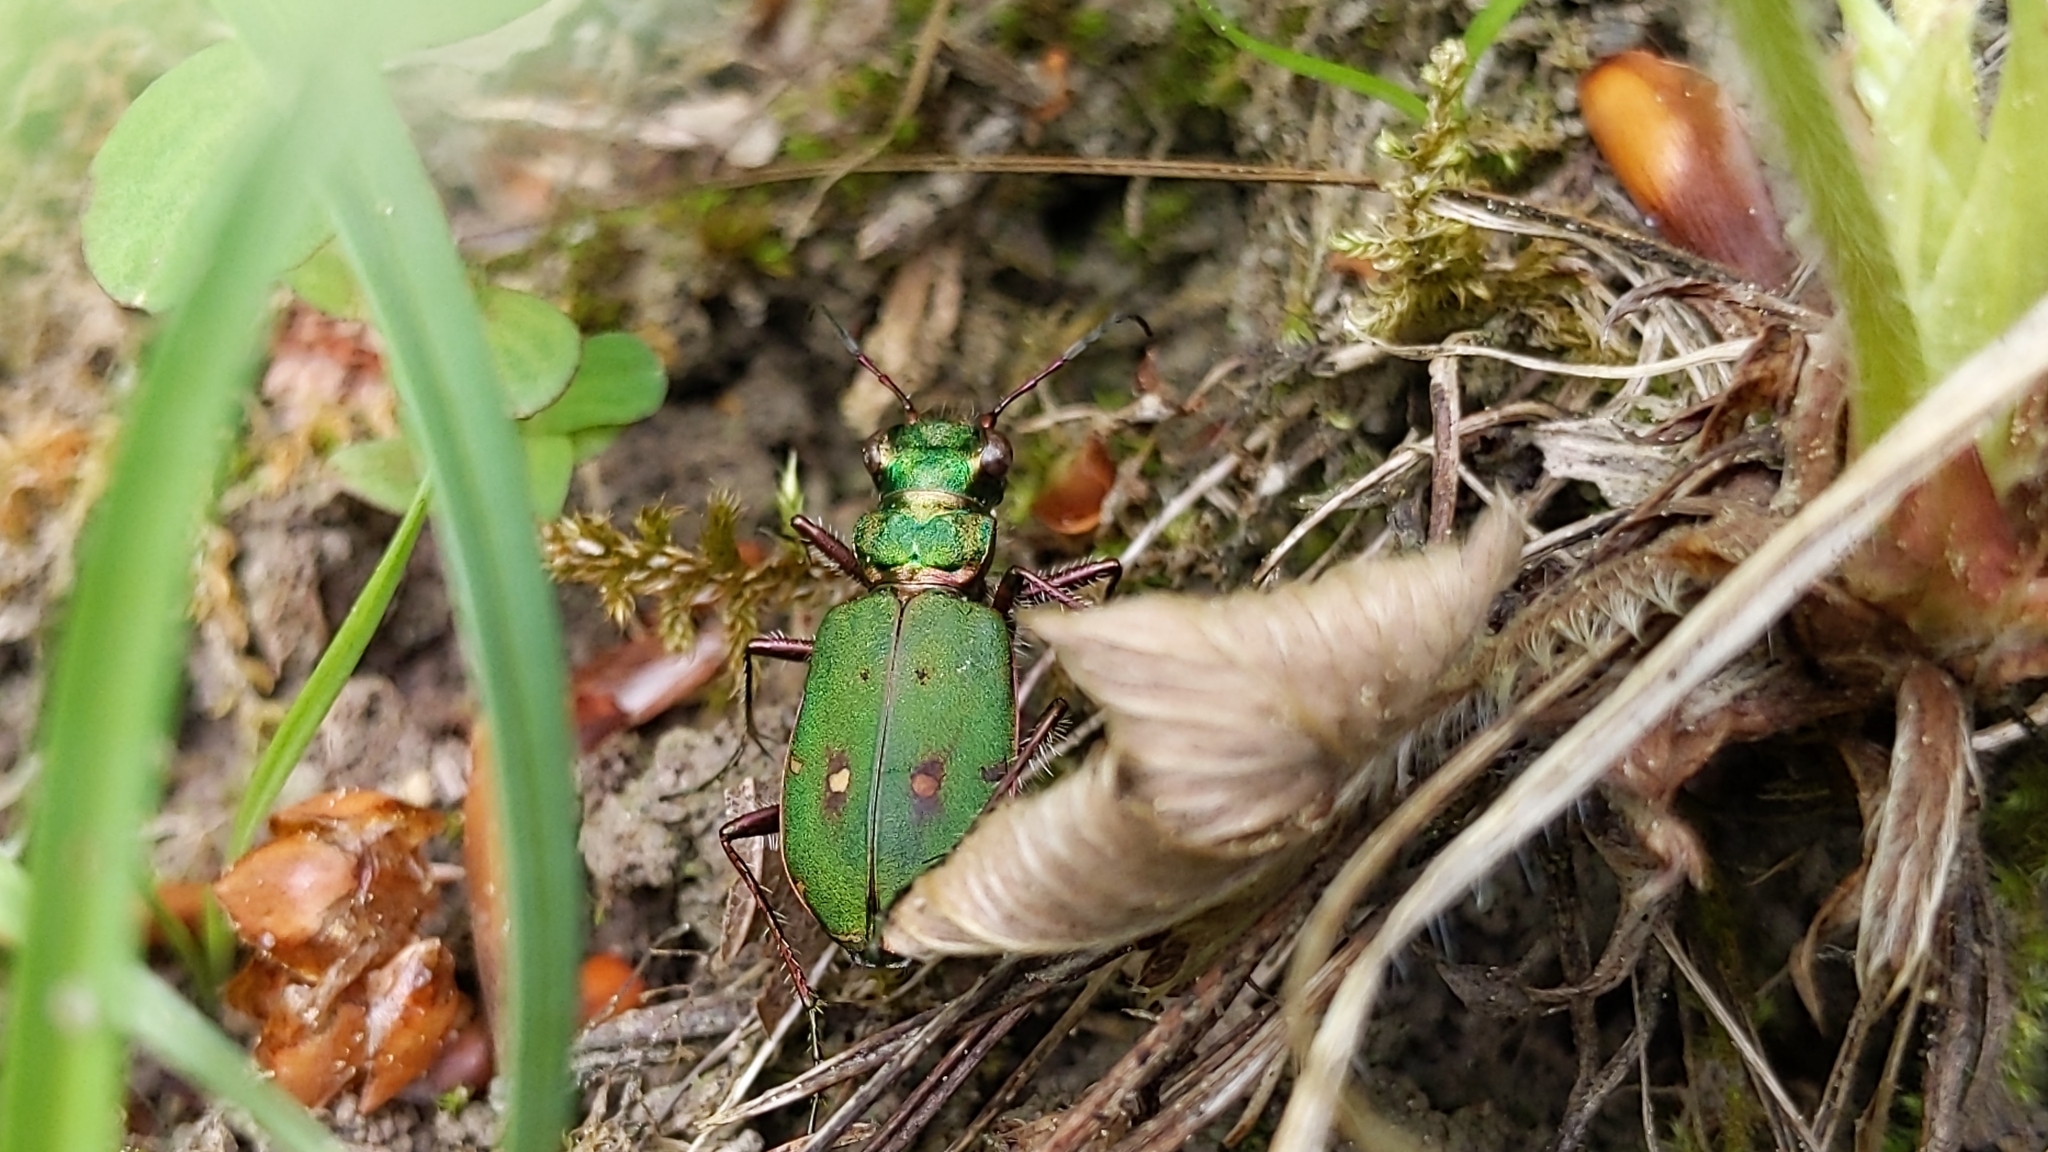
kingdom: Animalia
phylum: Arthropoda
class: Insecta
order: Coleoptera
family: Carabidae
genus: Cicindela
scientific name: Cicindela campestris
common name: Common tiger beetle
